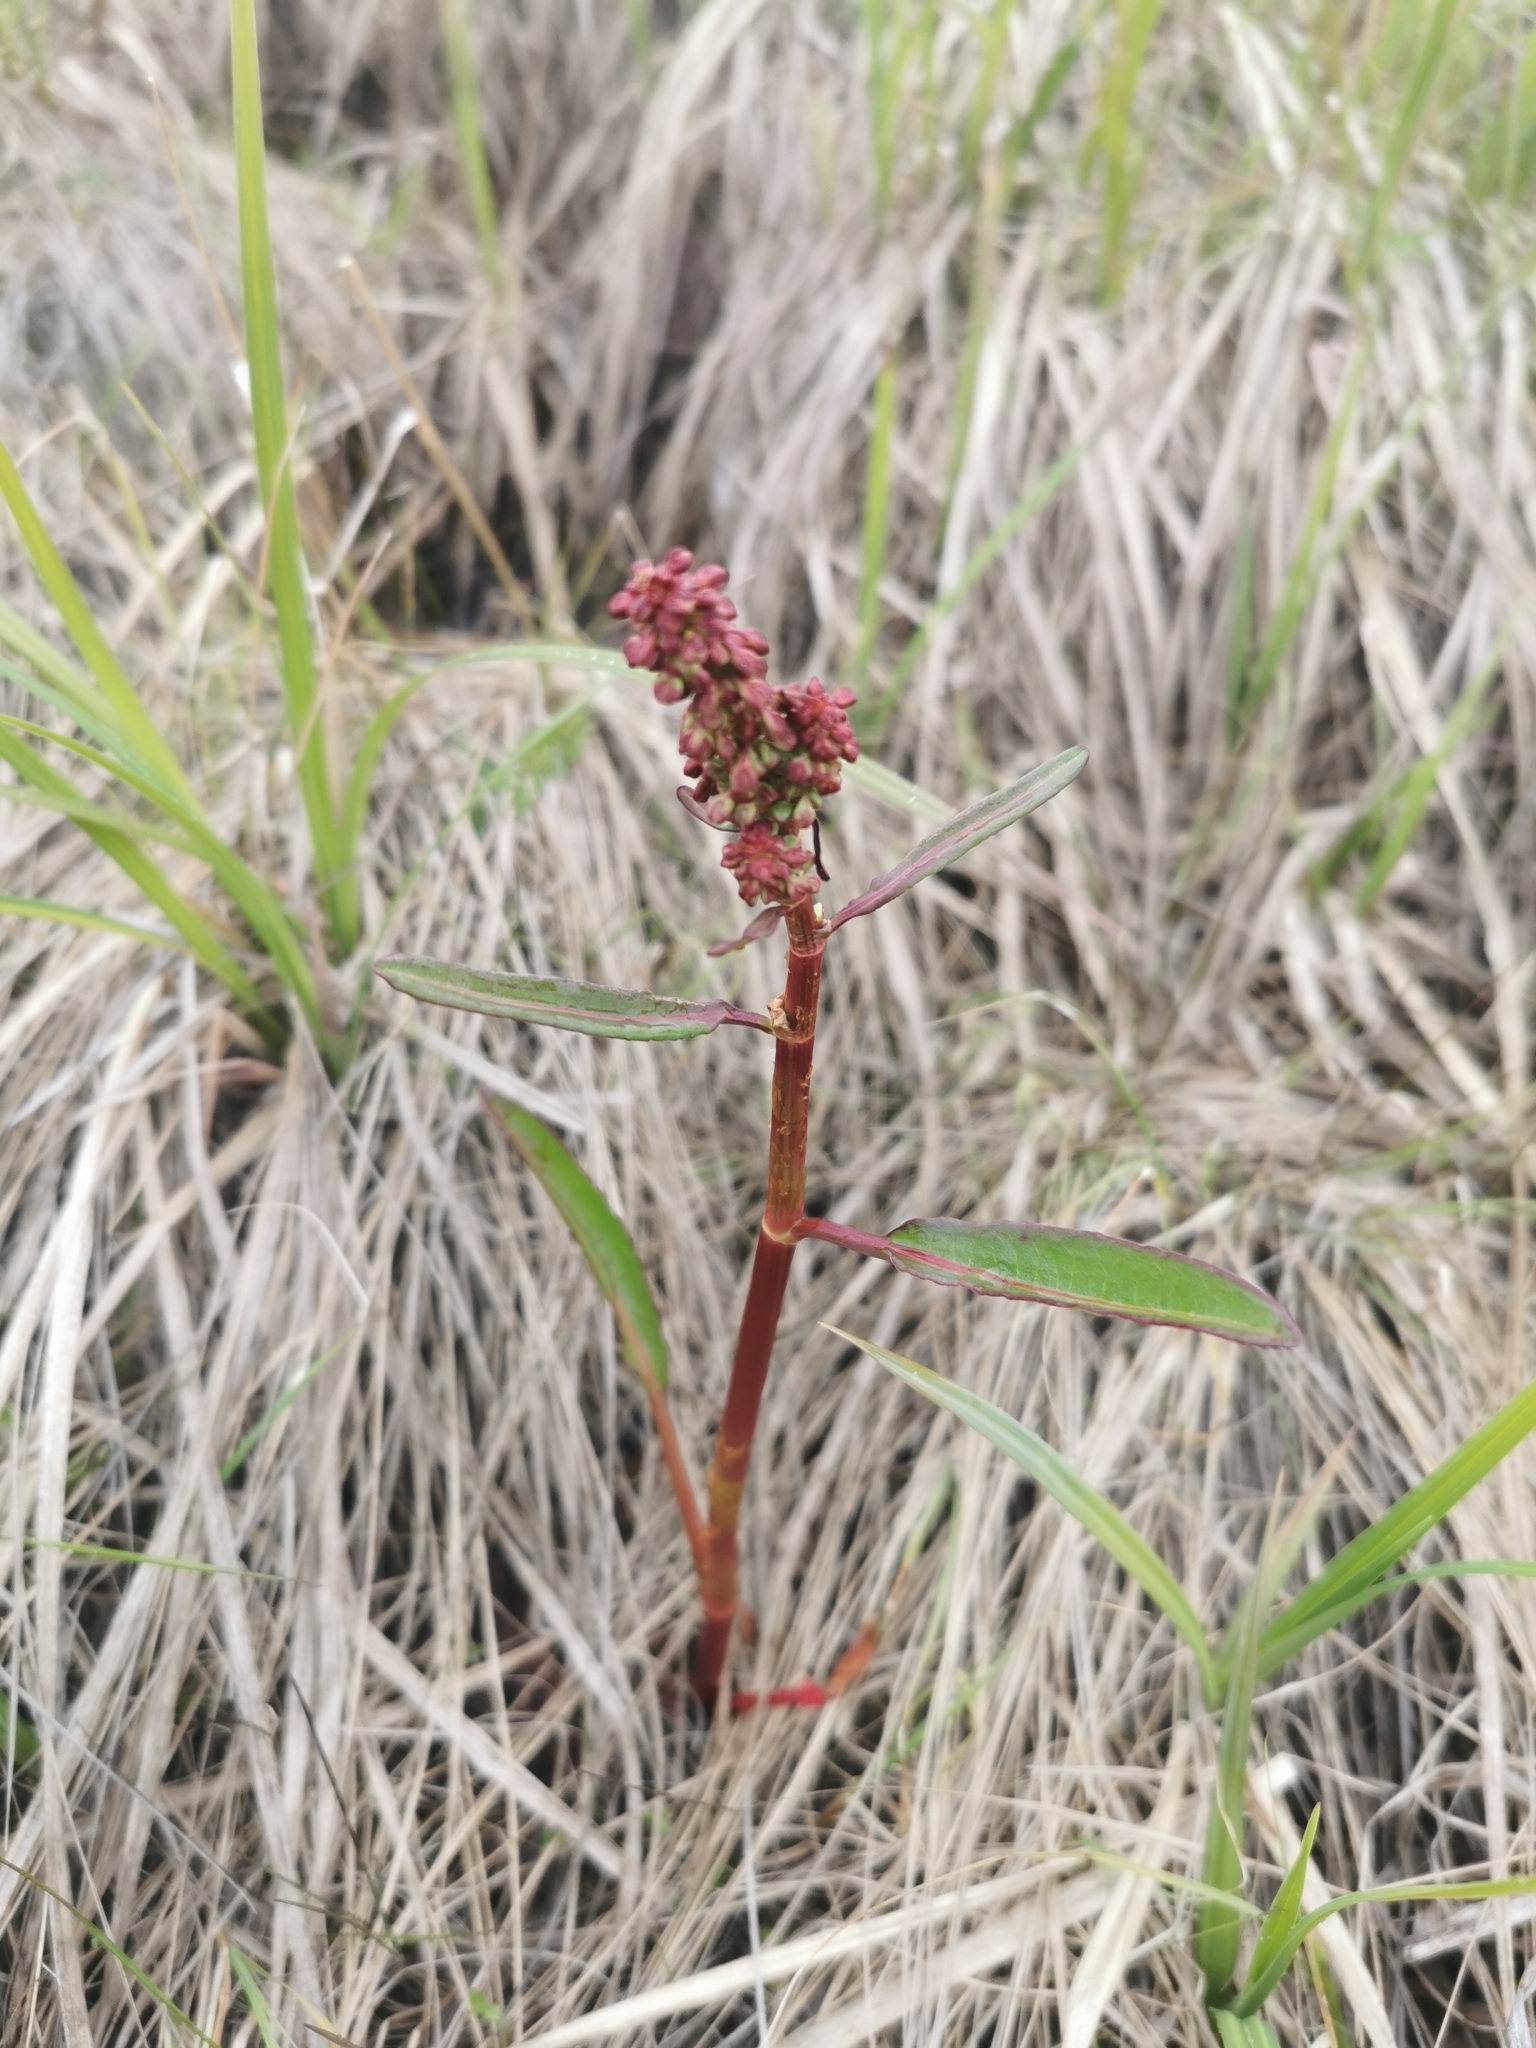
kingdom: Plantae
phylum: Tracheophyta
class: Magnoliopsida
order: Caryophyllales
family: Polygonaceae
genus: Rumex
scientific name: Rumex arcticus
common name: Arctic dock
